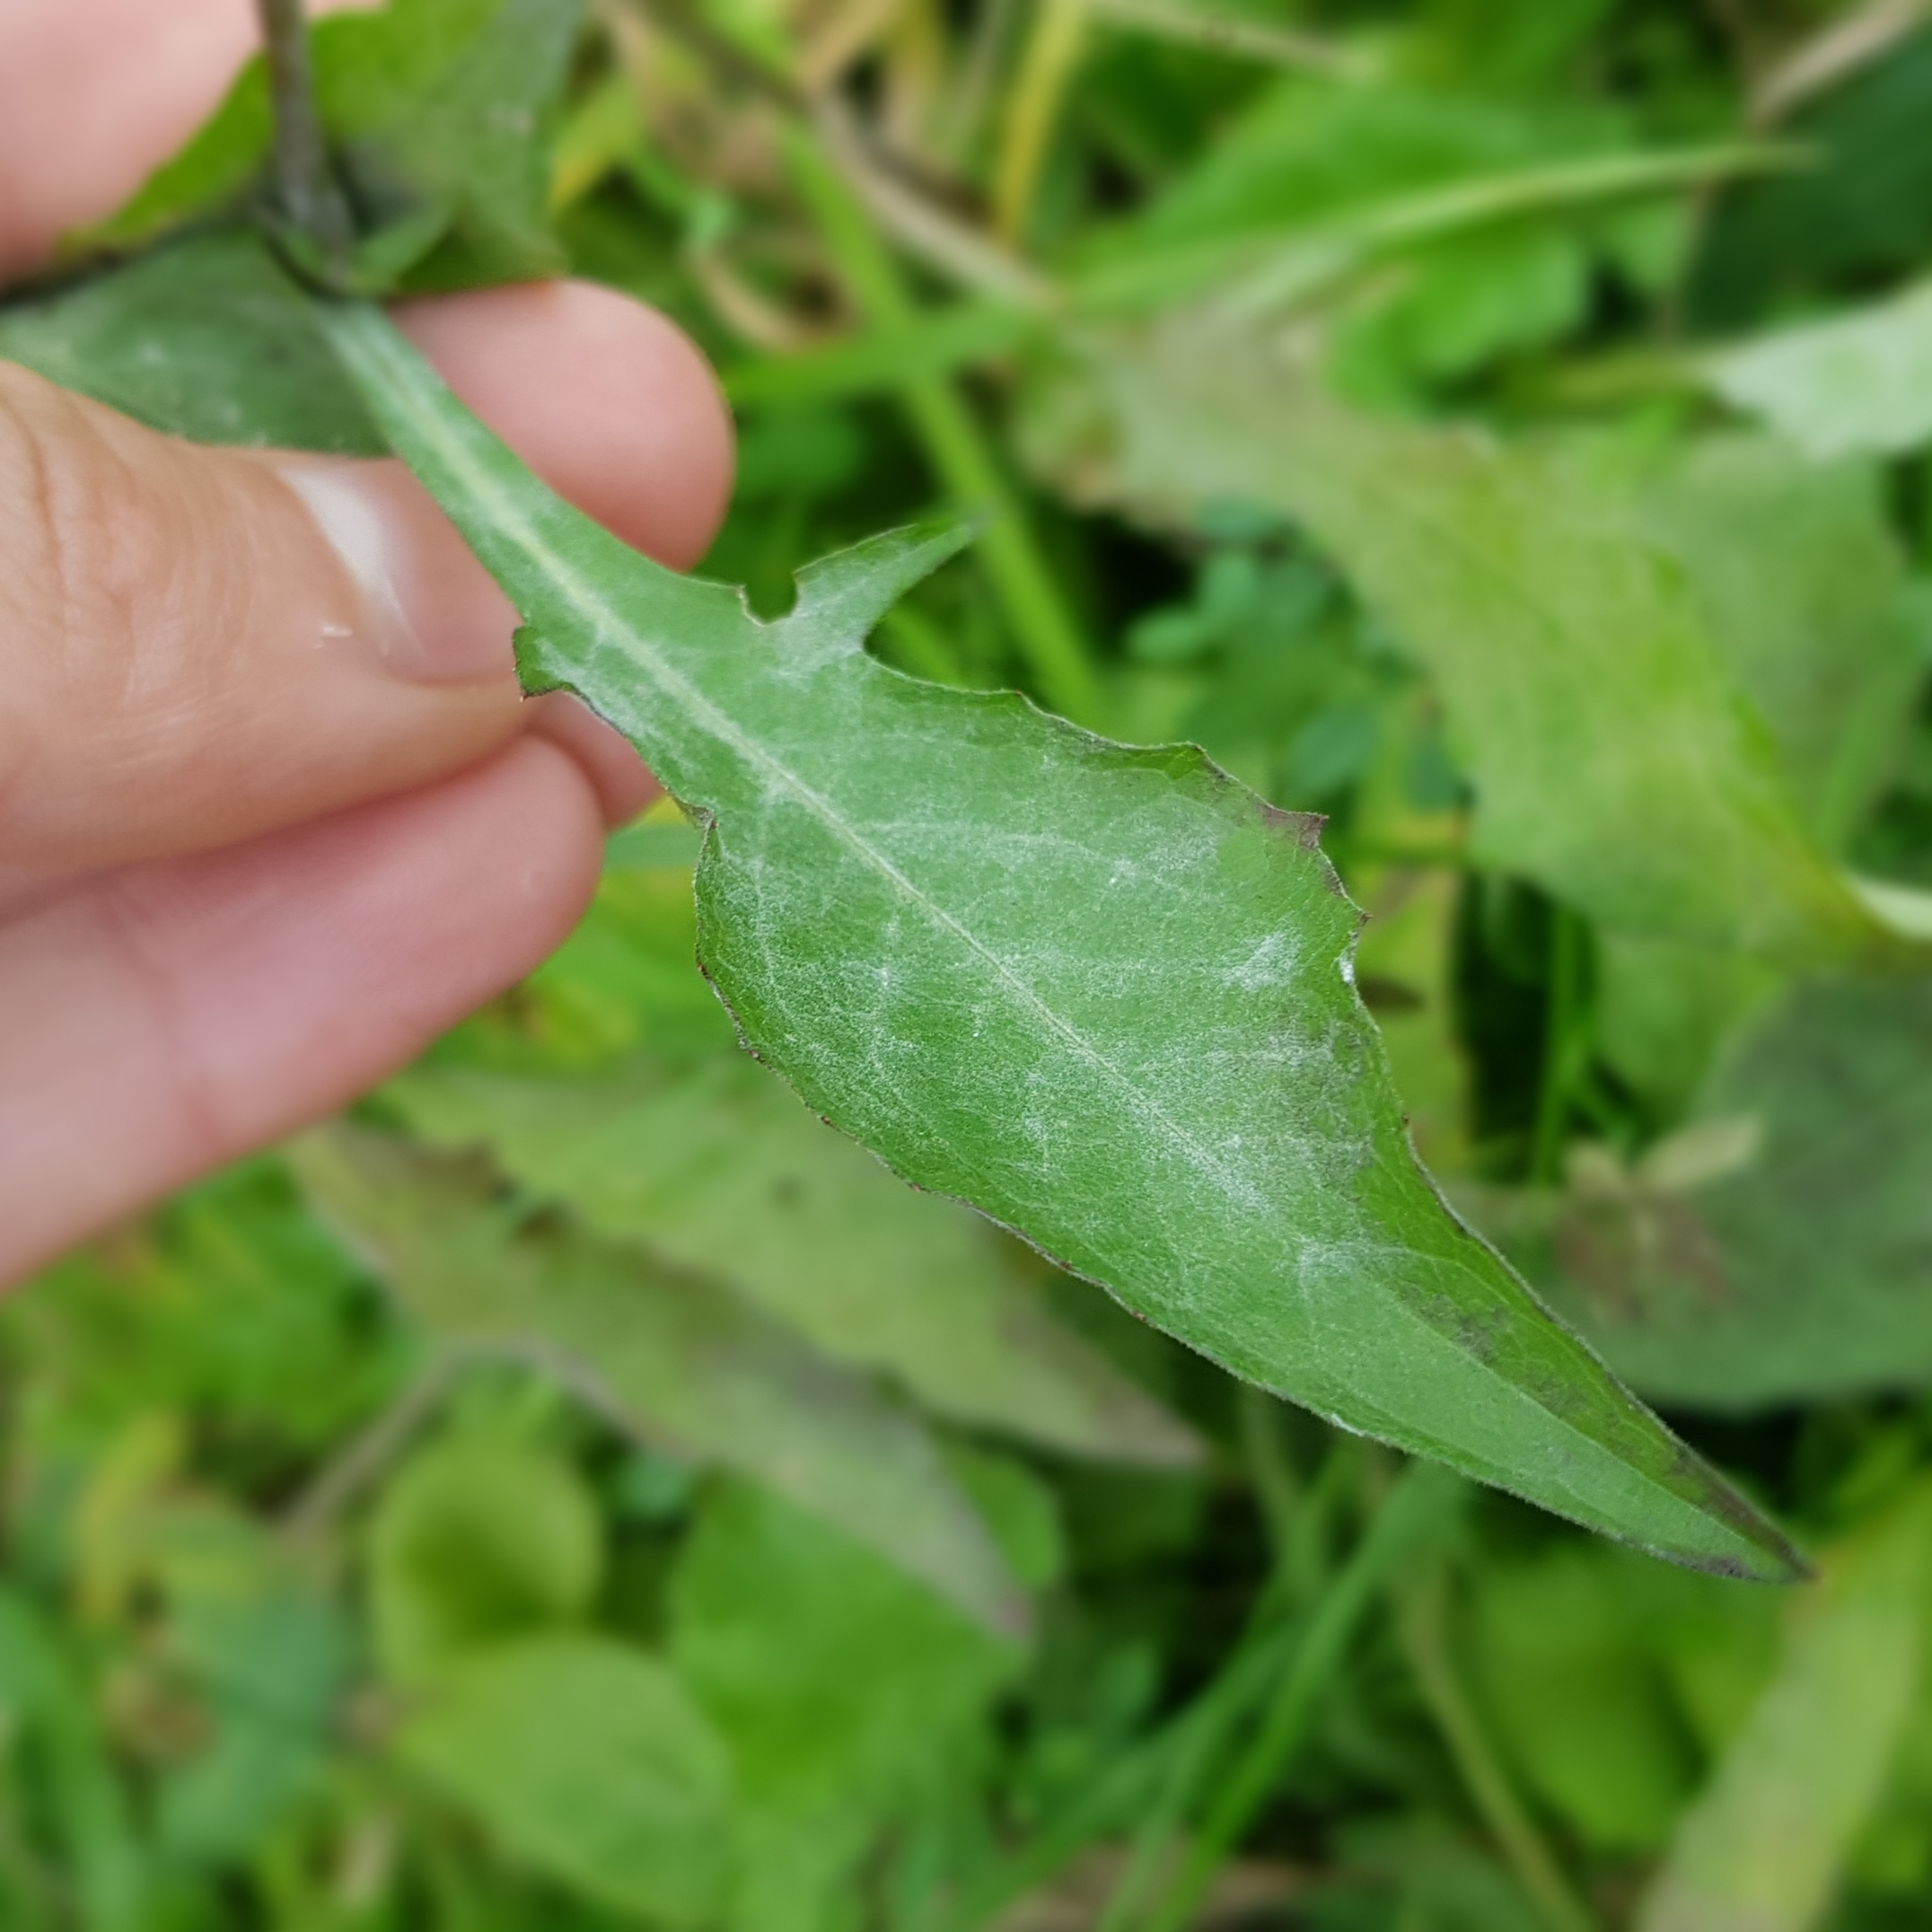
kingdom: Plantae
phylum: Tracheophyta
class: Magnoliopsida
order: Asterales
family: Asteraceae
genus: Centaurea
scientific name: Centaurea jacea
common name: Brown knapweed
